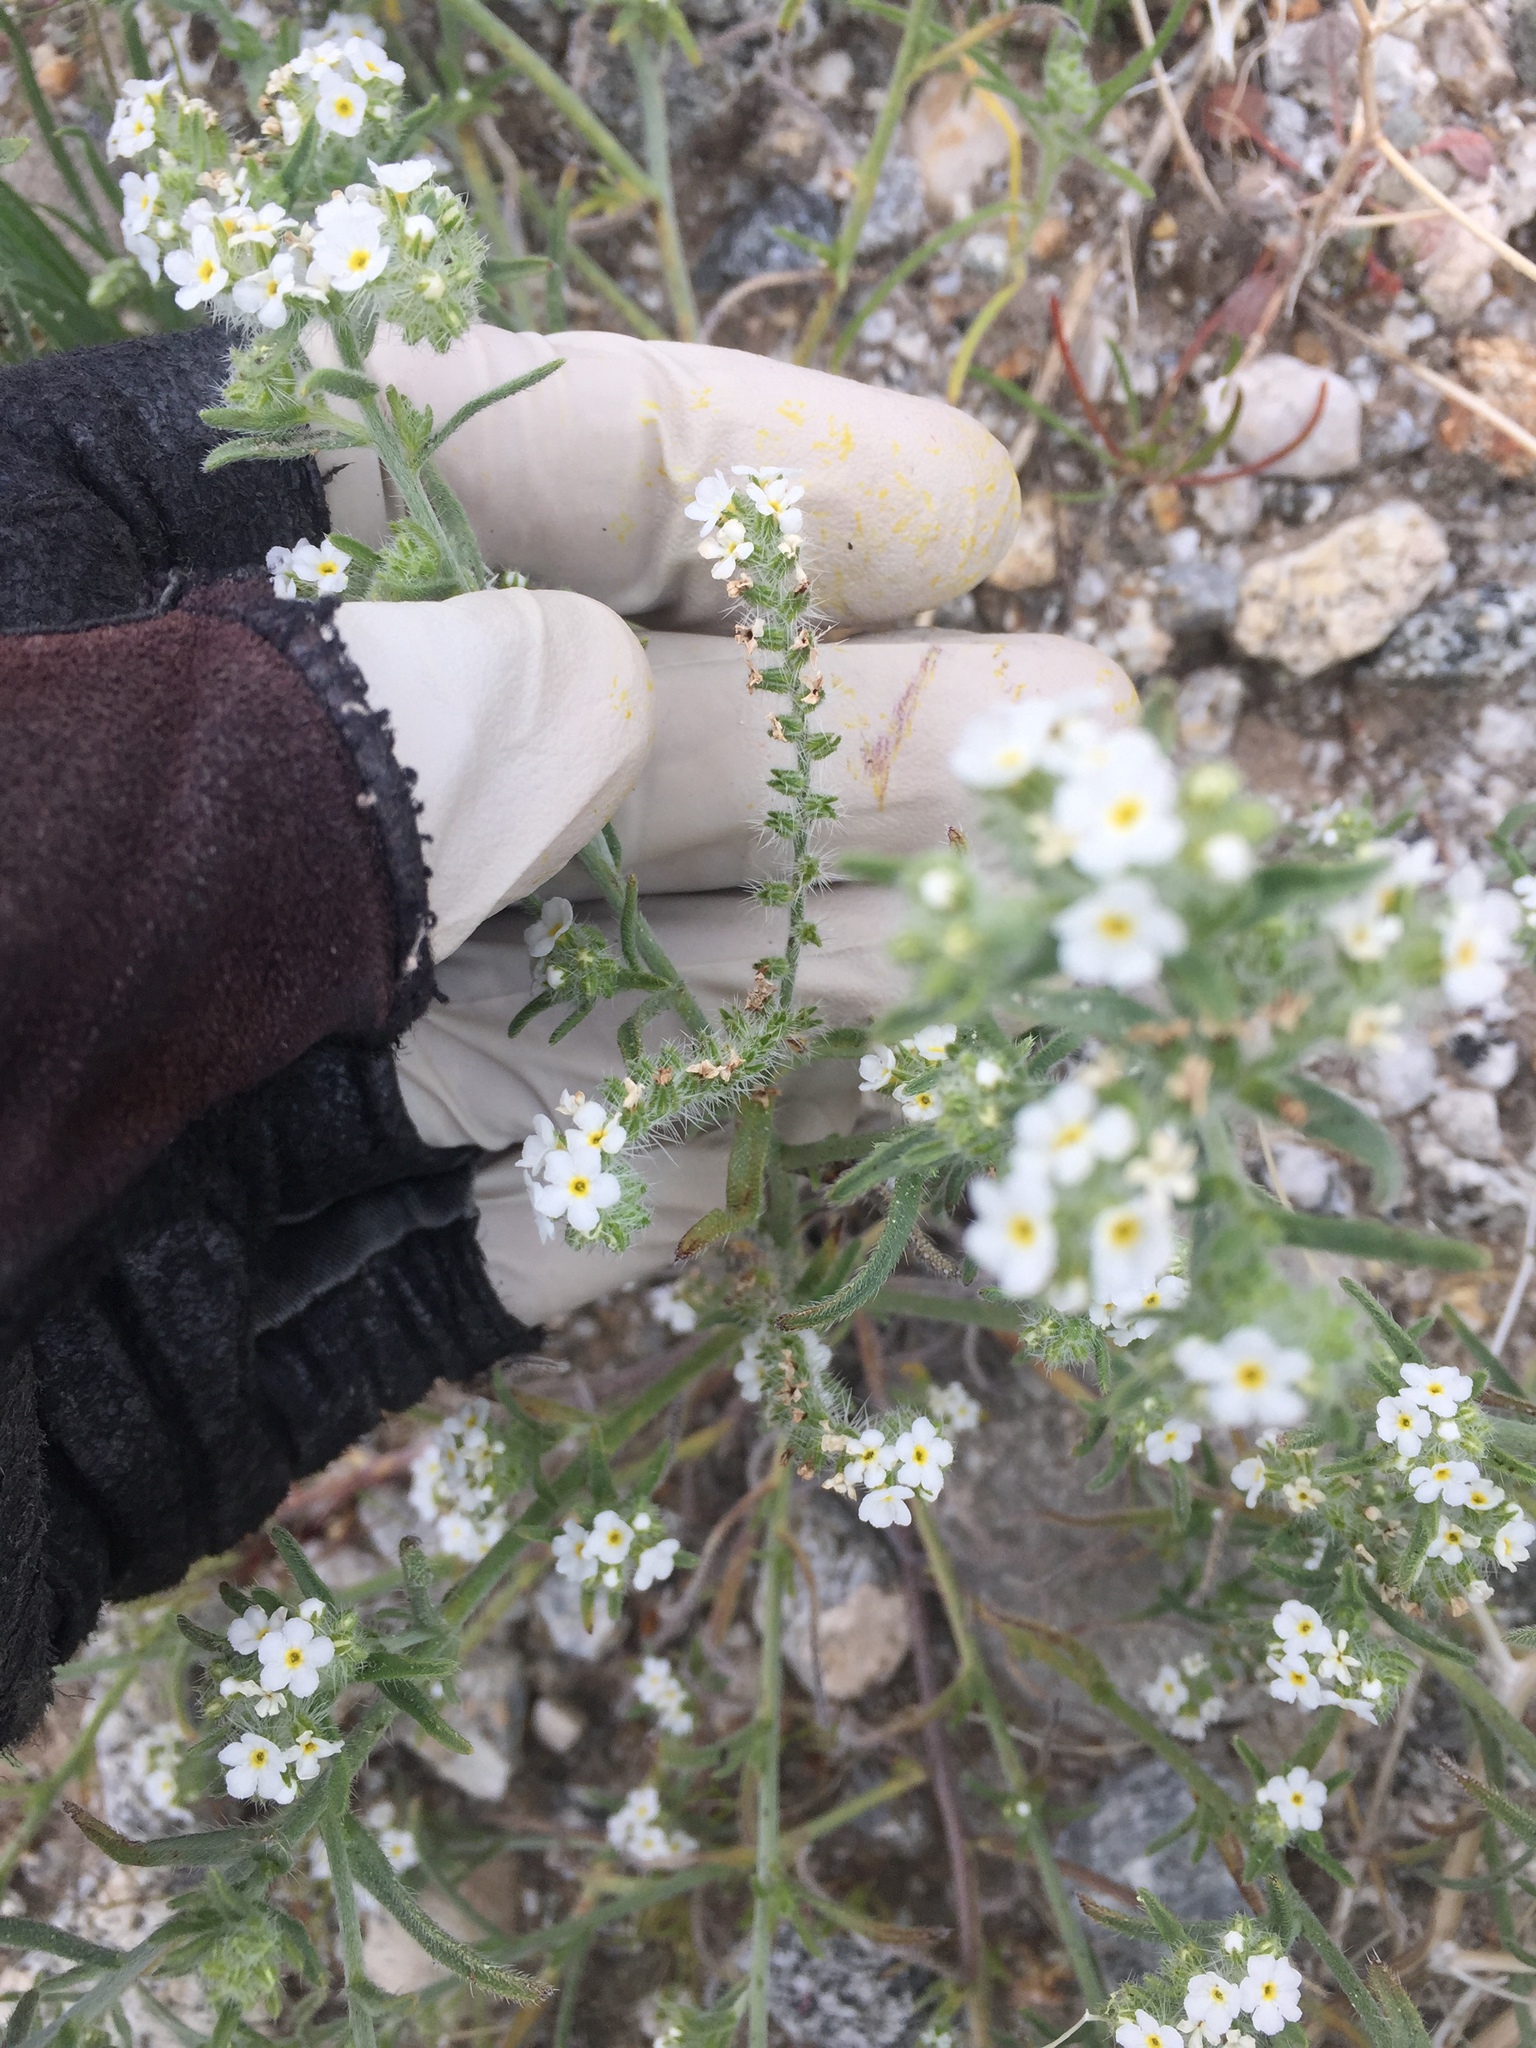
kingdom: Plantae
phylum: Tracheophyta
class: Magnoliopsida
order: Boraginales
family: Boraginaceae
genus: Johnstonella
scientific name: Johnstonella angustifolia
